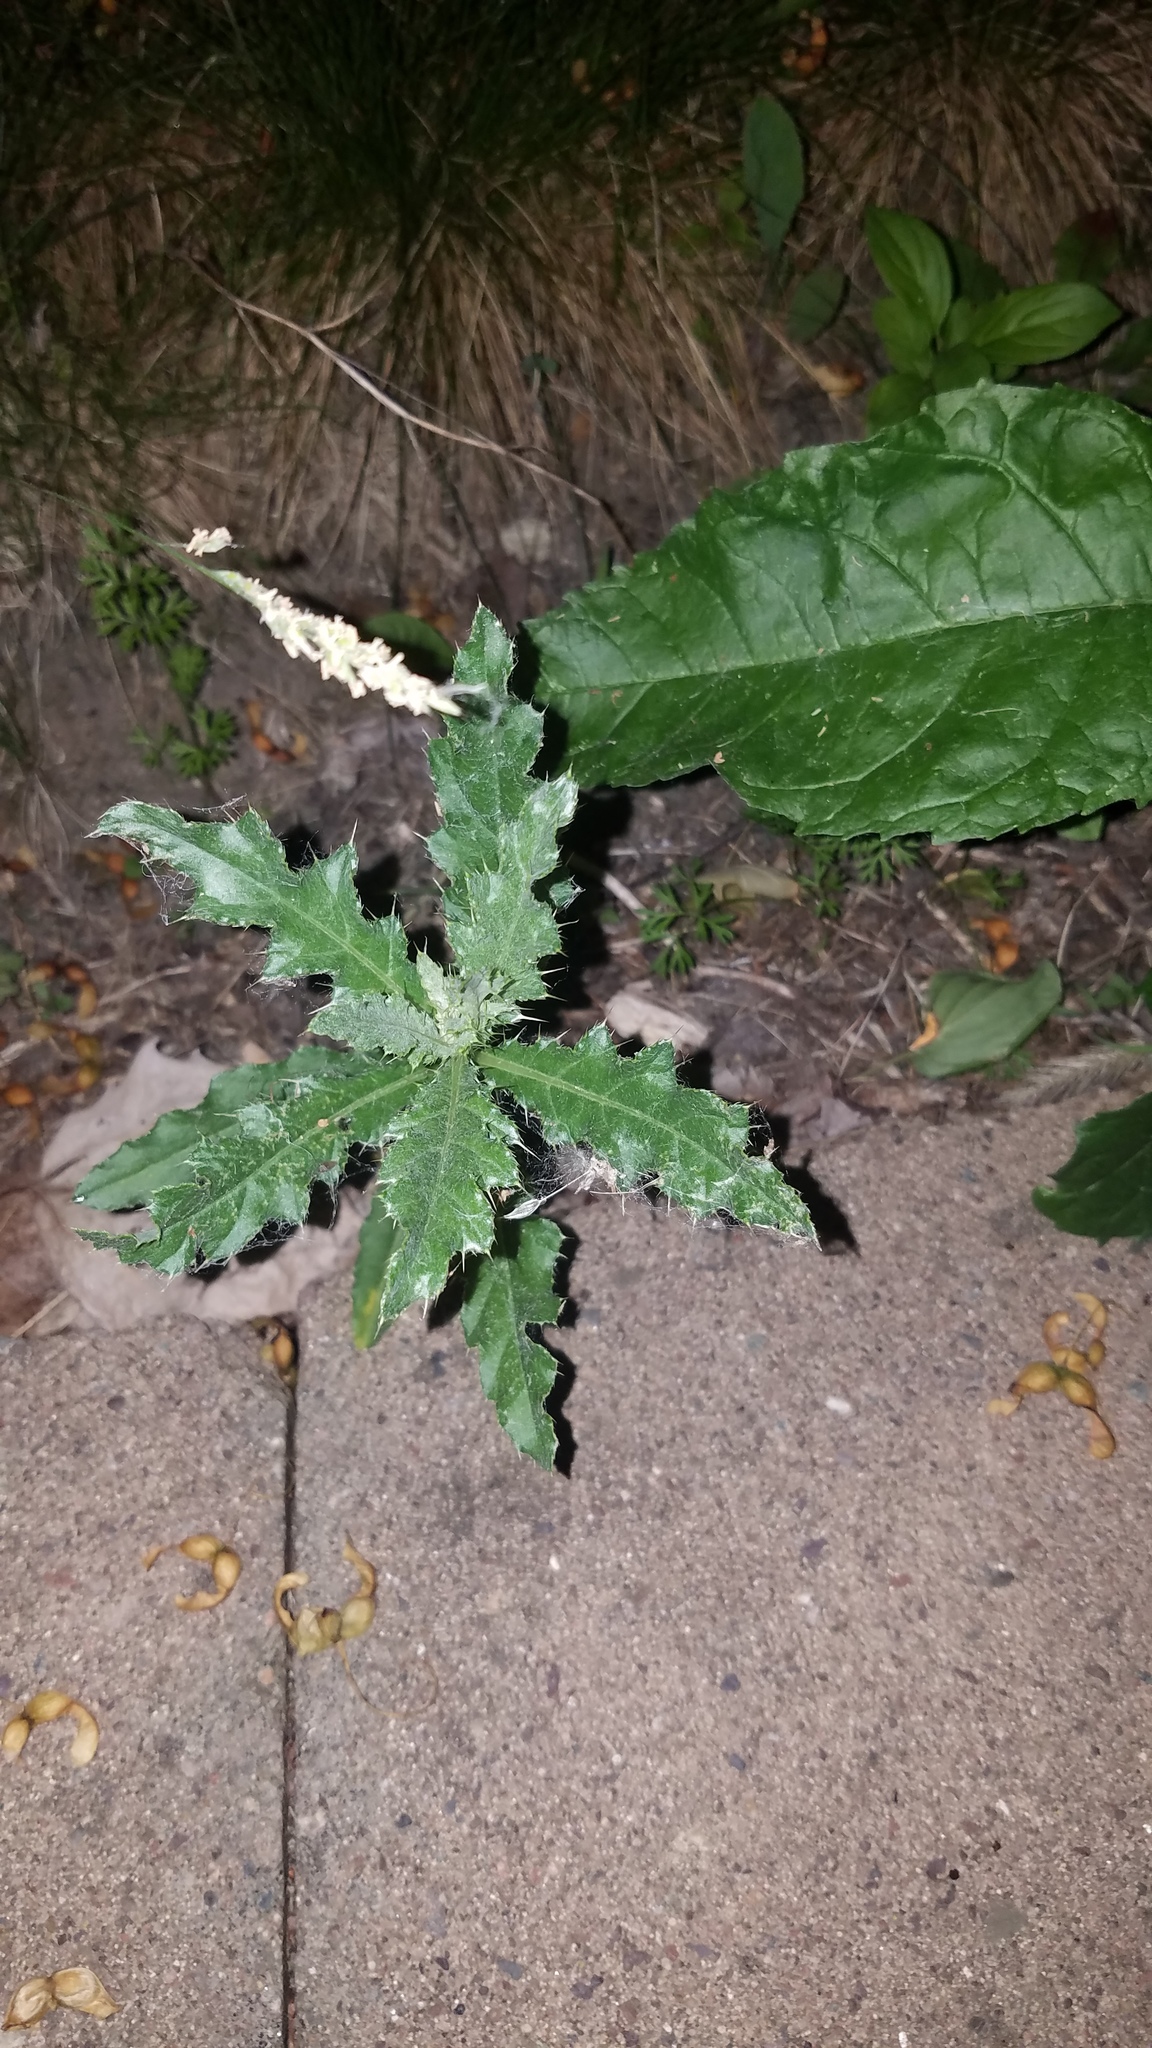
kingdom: Plantae
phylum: Tracheophyta
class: Magnoliopsida
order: Asterales
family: Asteraceae
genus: Cirsium
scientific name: Cirsium arvense
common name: Creeping thistle
